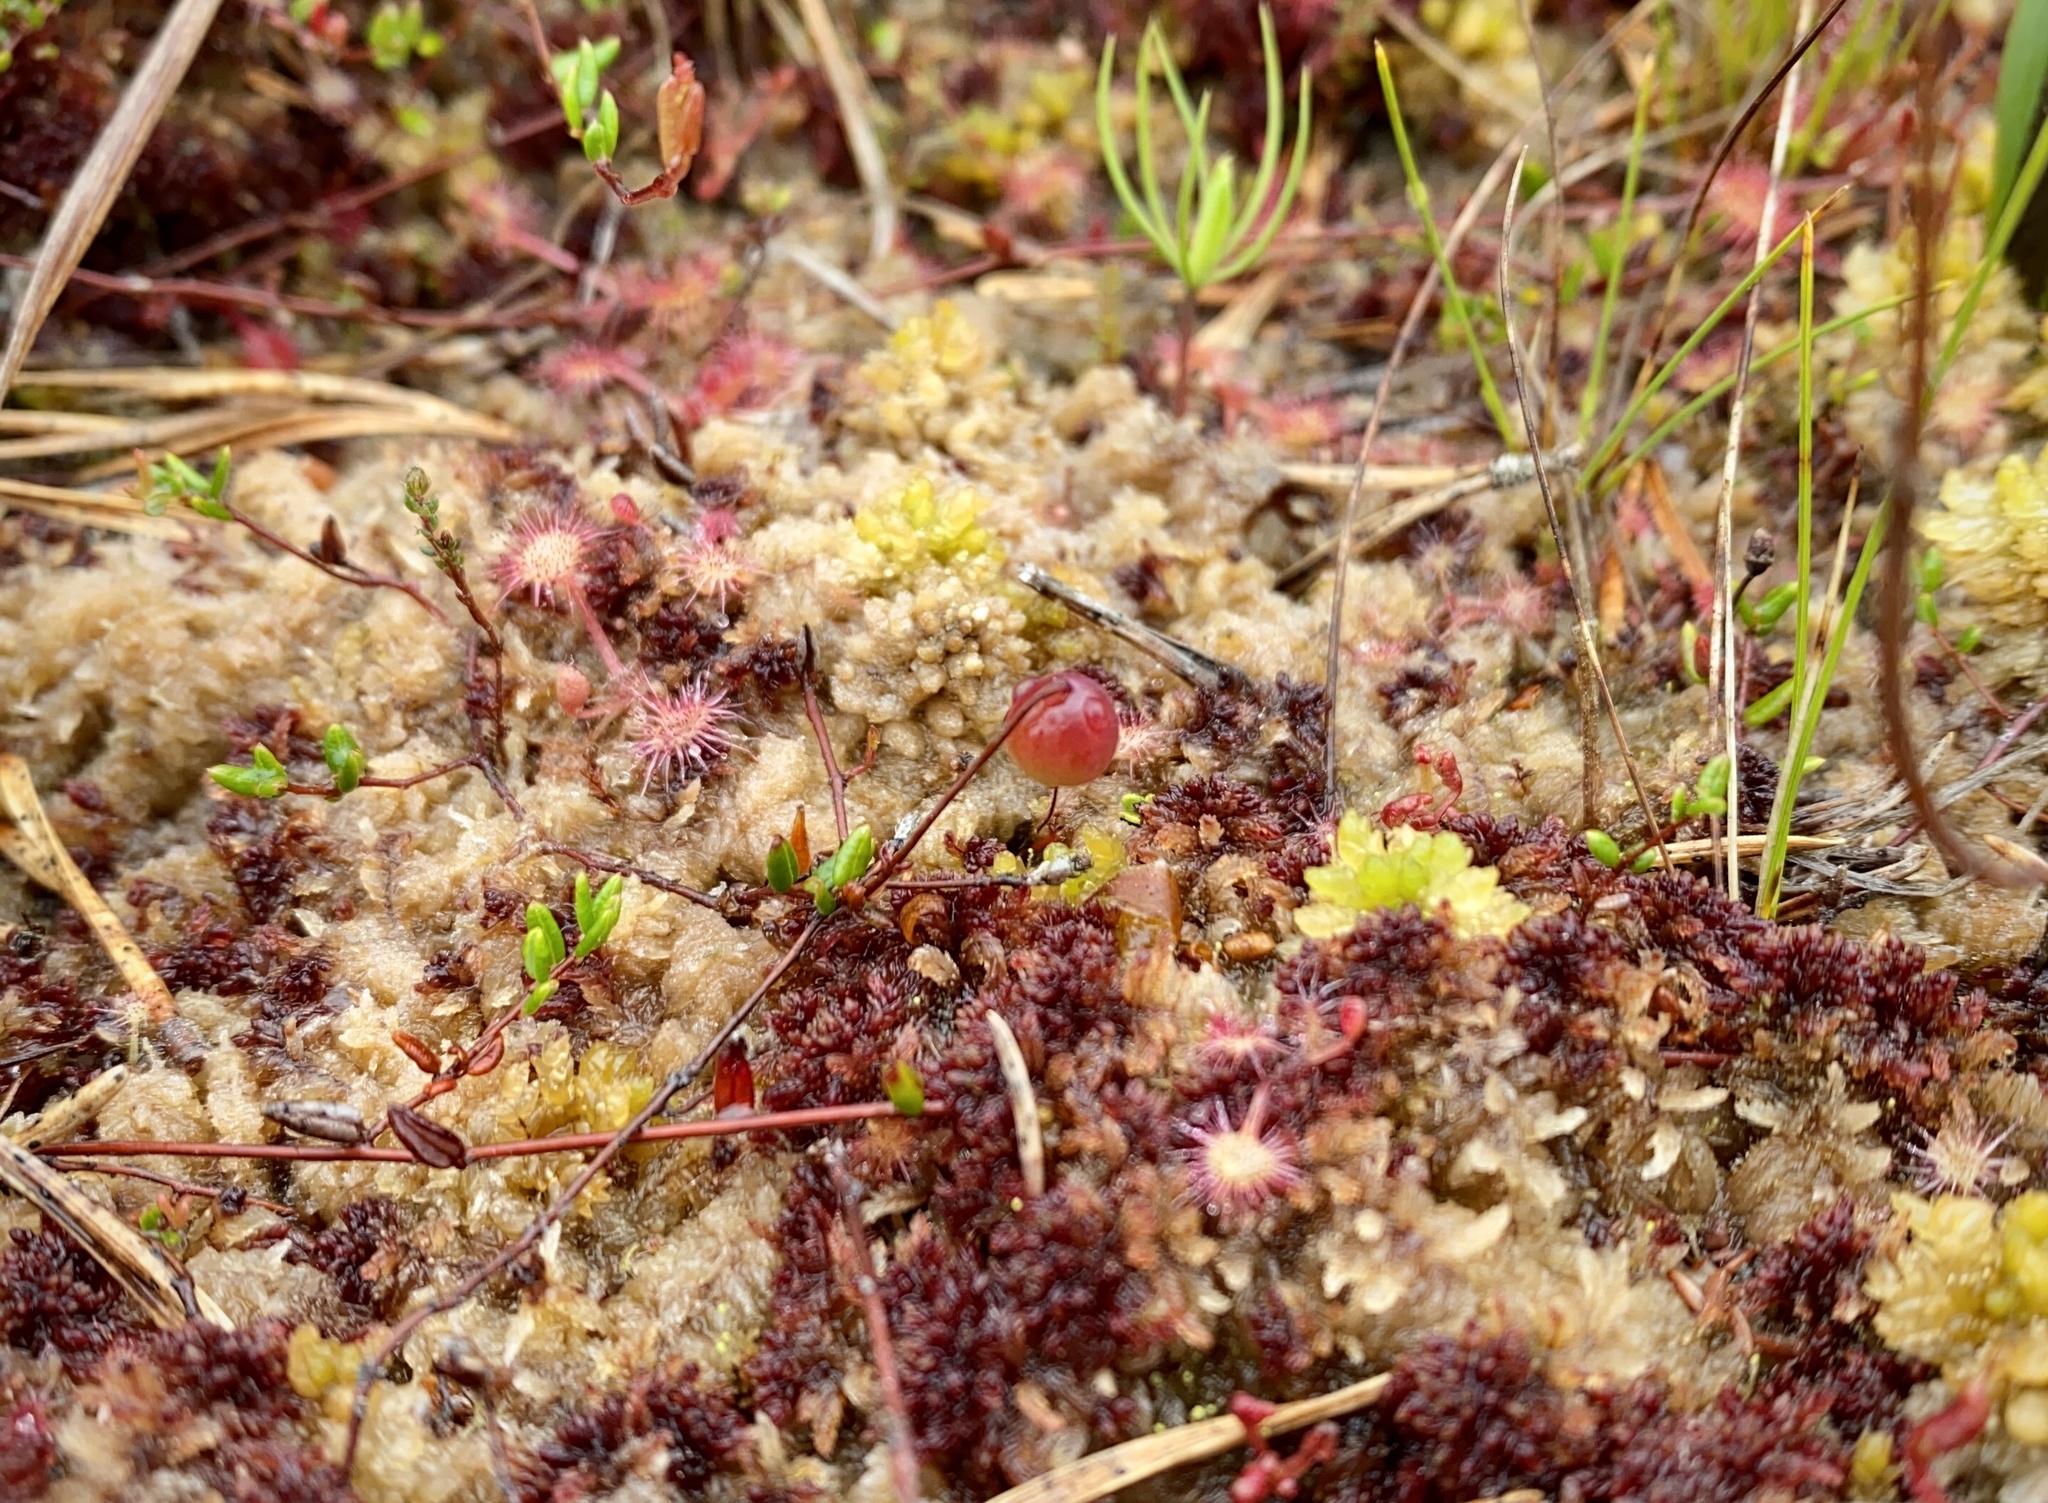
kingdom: Plantae
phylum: Tracheophyta
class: Magnoliopsida
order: Ericales
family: Ericaceae
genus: Vaccinium
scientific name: Vaccinium oxycoccos
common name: Cranberry
